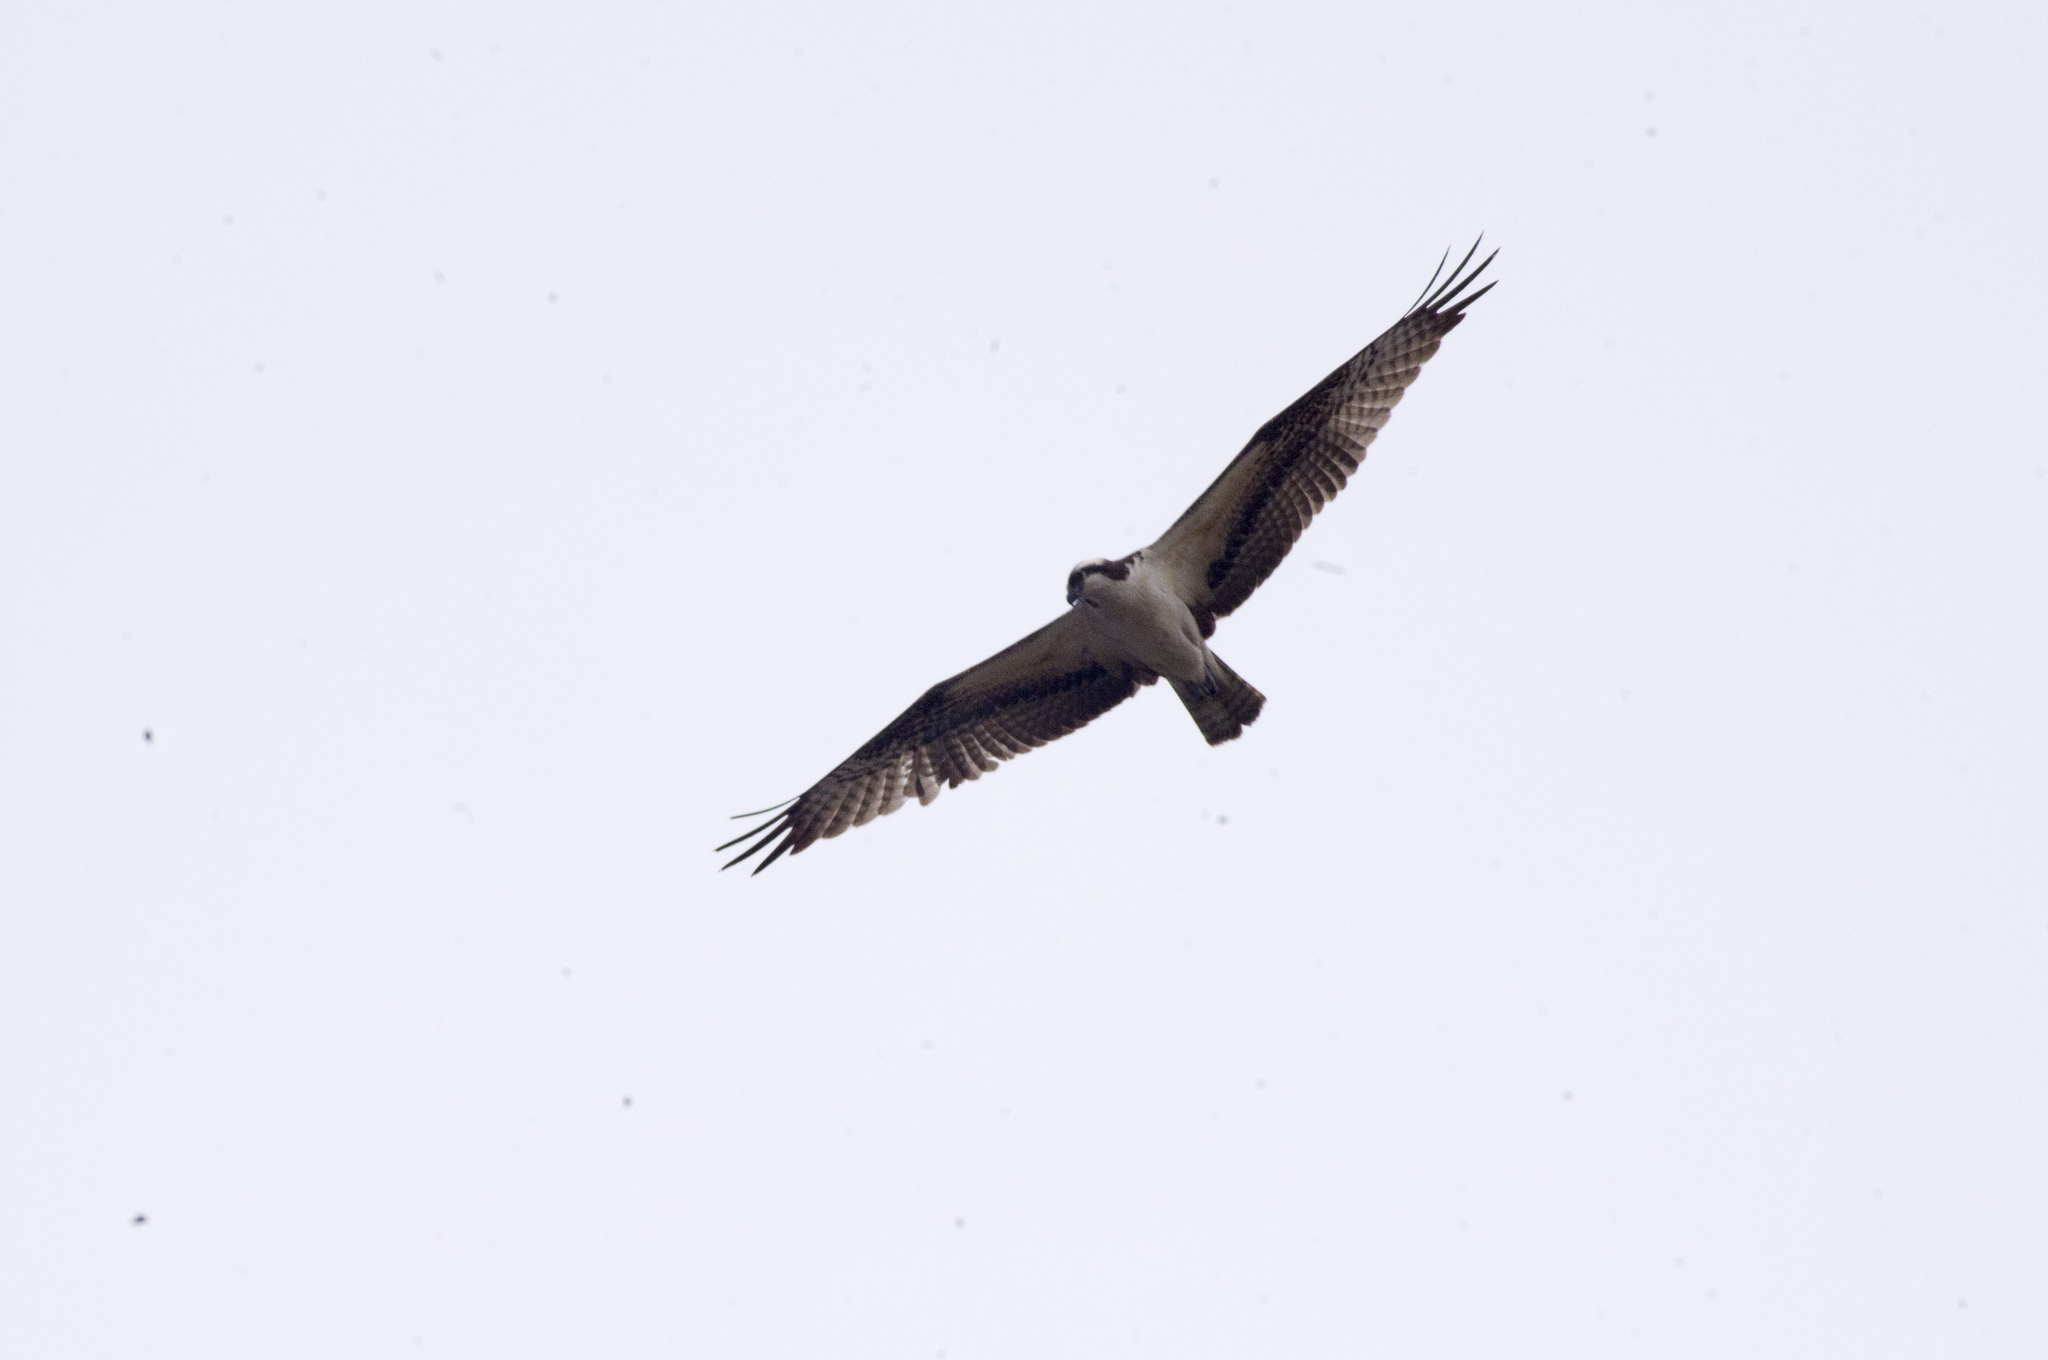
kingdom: Animalia
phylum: Chordata
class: Aves
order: Accipitriformes
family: Pandionidae
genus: Pandion
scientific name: Pandion haliaetus
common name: Osprey
